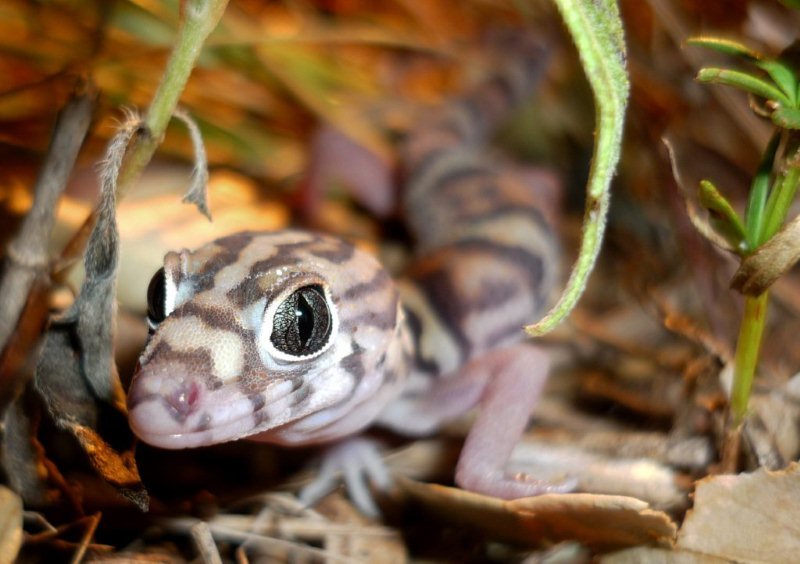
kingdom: Animalia
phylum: Chordata
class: Squamata
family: Eublepharidae
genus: Coleonyx
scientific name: Coleonyx elegans
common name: Yucatan banded gecko
